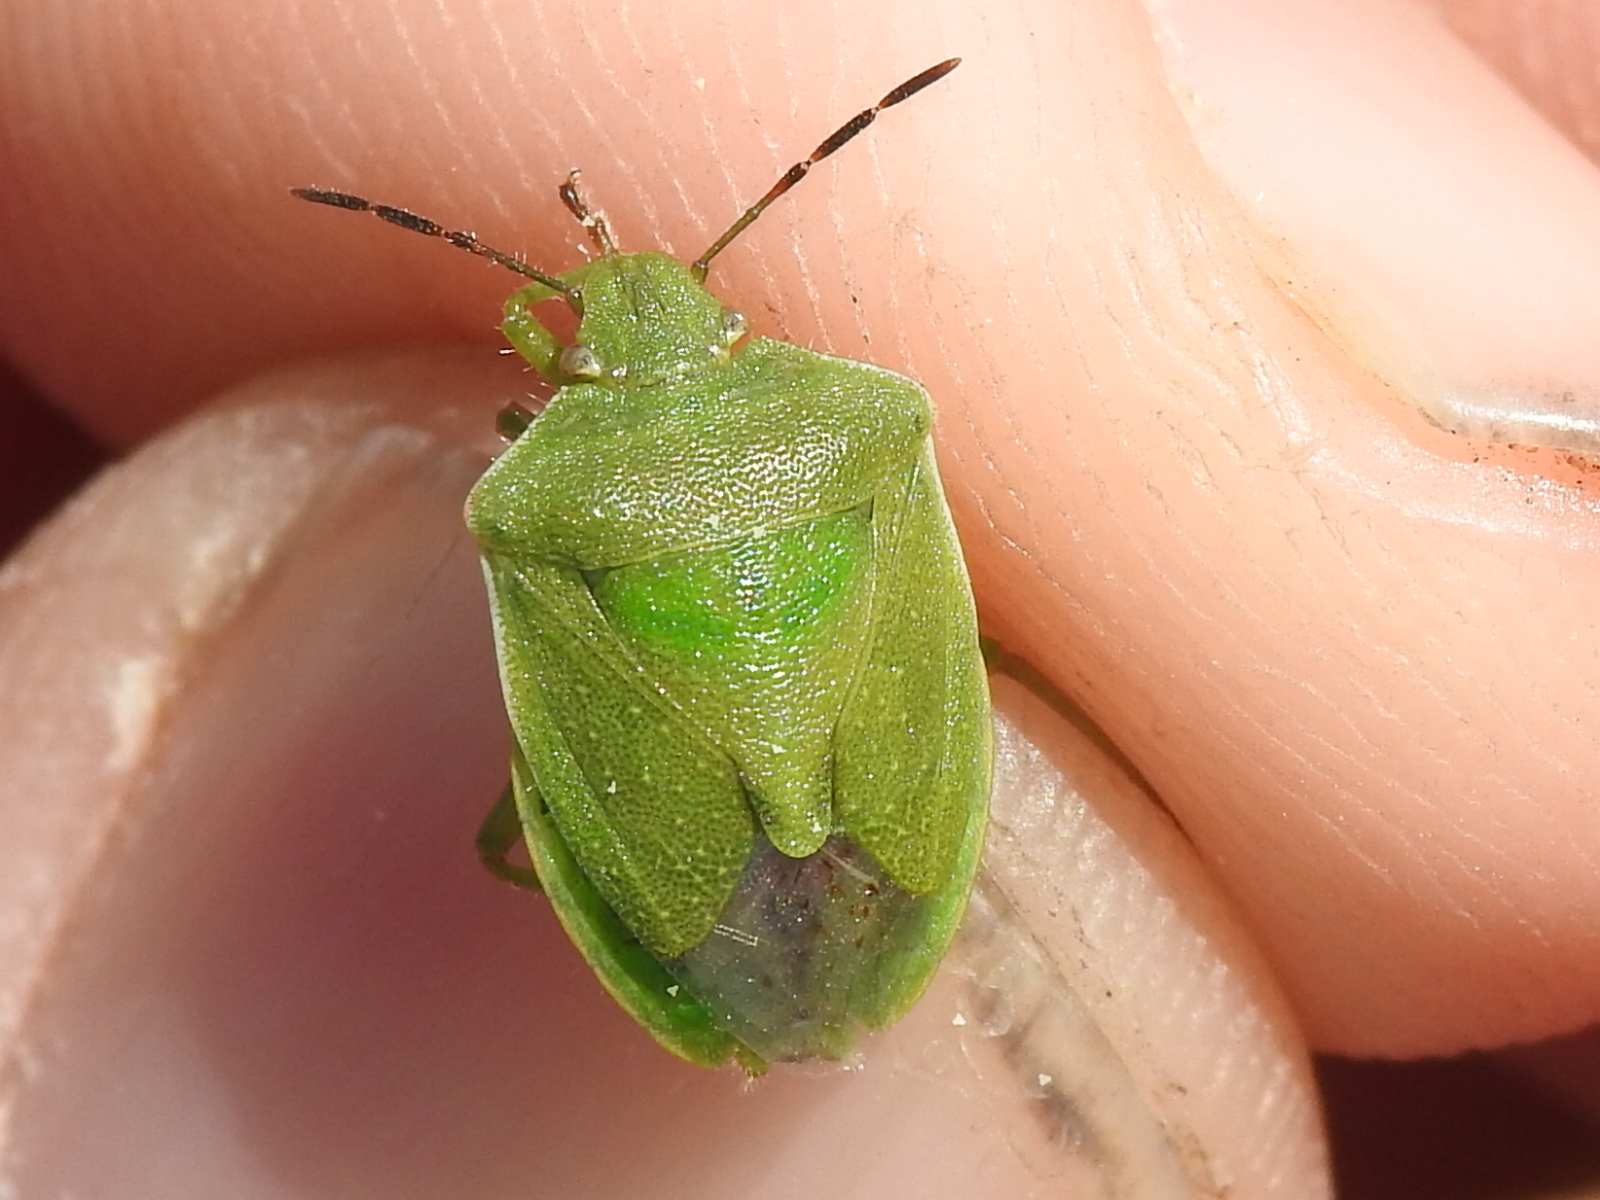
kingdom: Animalia
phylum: Arthropoda
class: Insecta
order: Hemiptera
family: Pentatomidae
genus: Thyanta
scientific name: Thyanta accerra
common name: Stink bug
